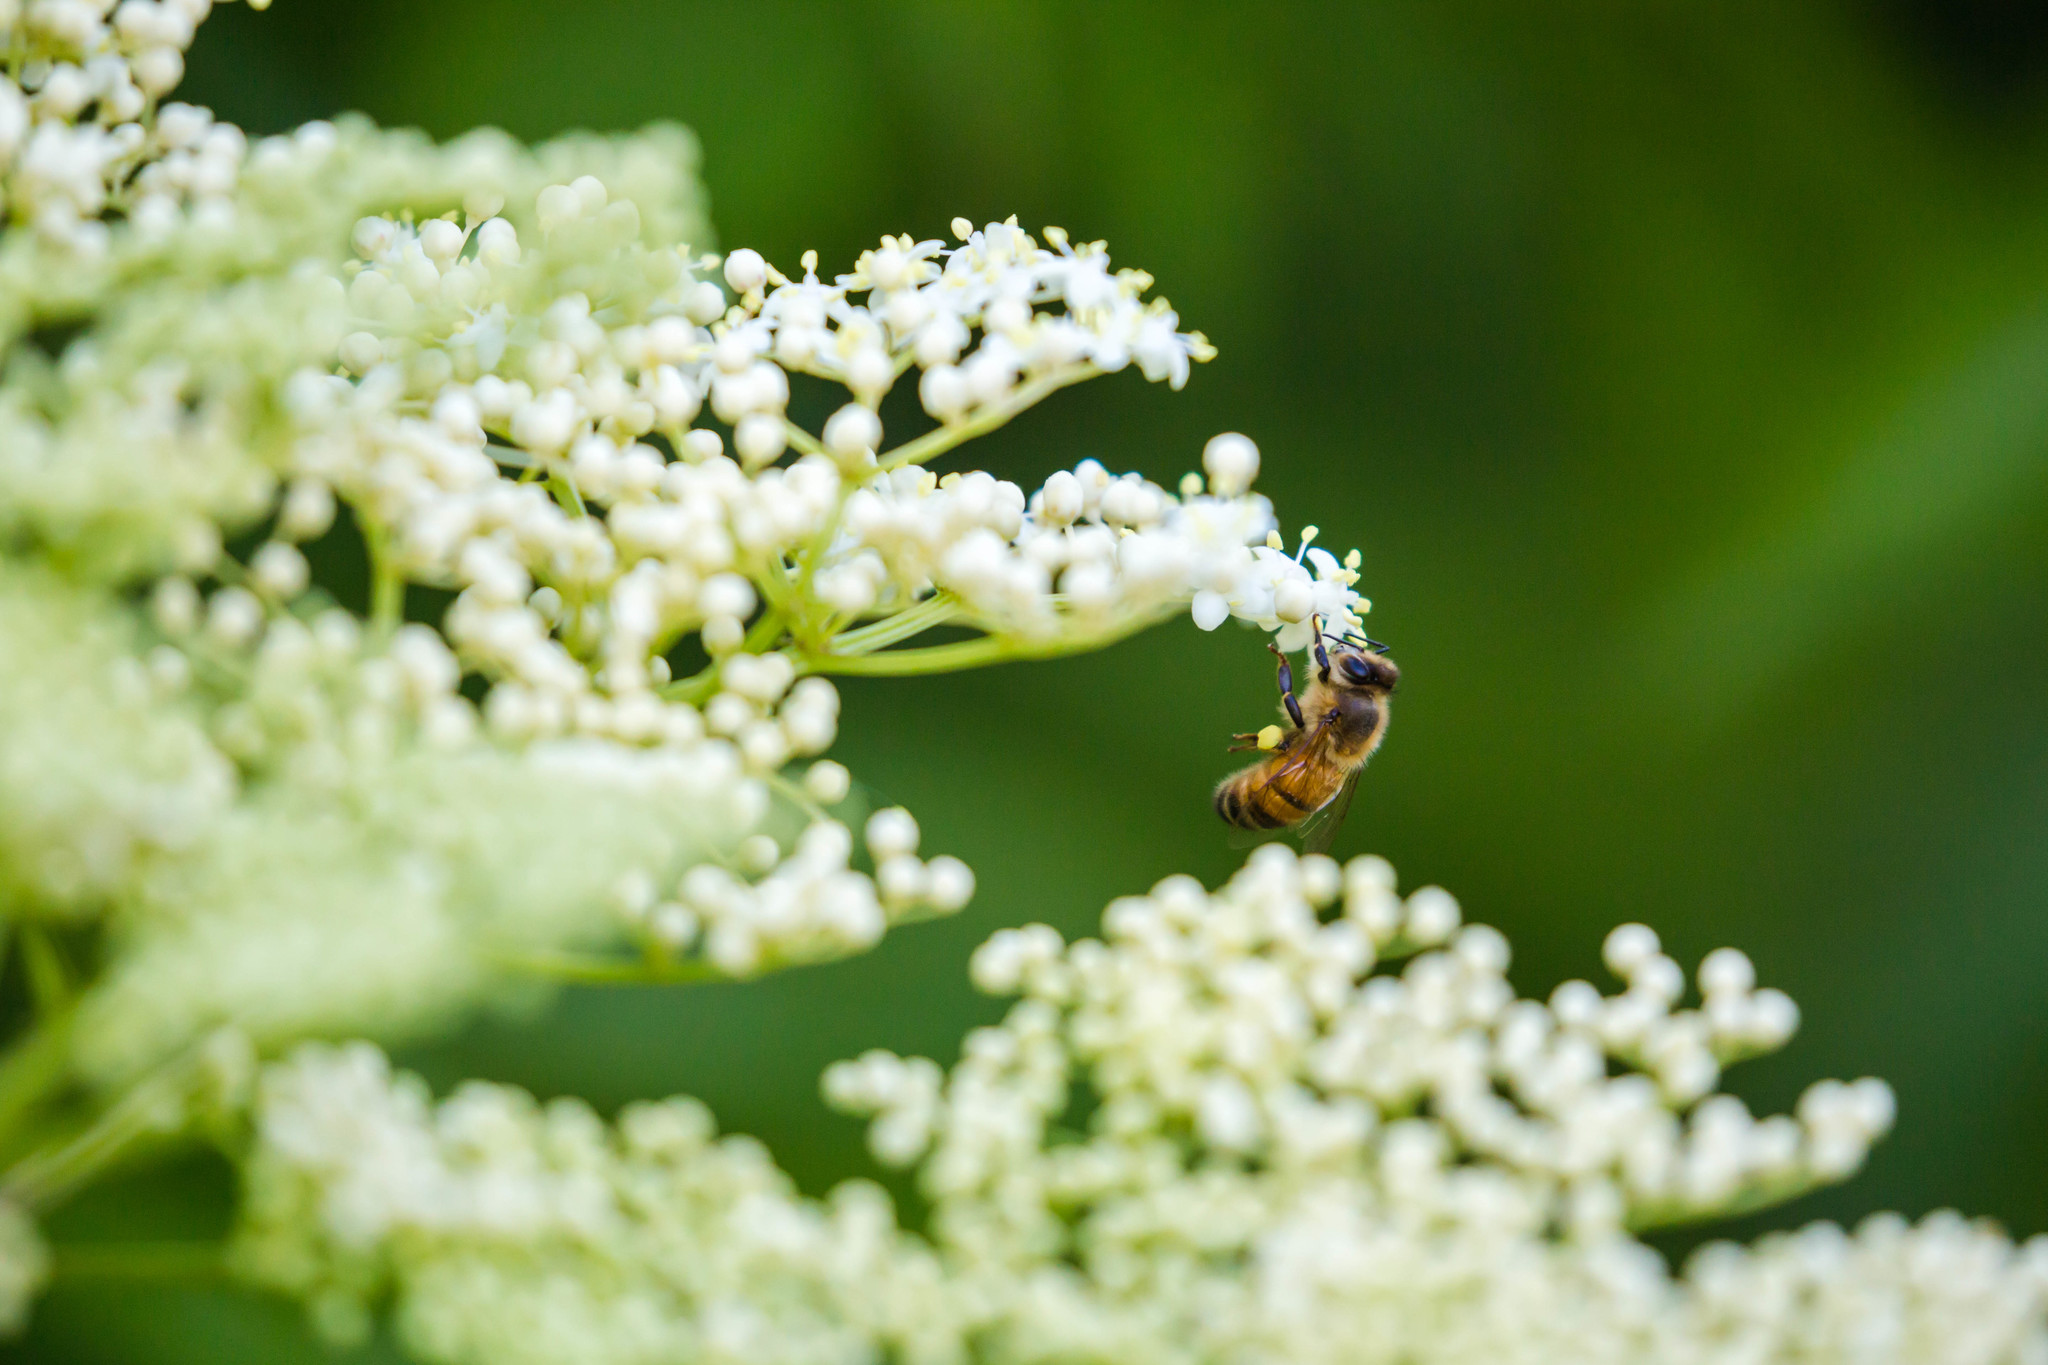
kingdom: Animalia
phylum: Arthropoda
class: Insecta
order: Hymenoptera
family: Apidae
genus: Apis
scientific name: Apis mellifera
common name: Honey bee
